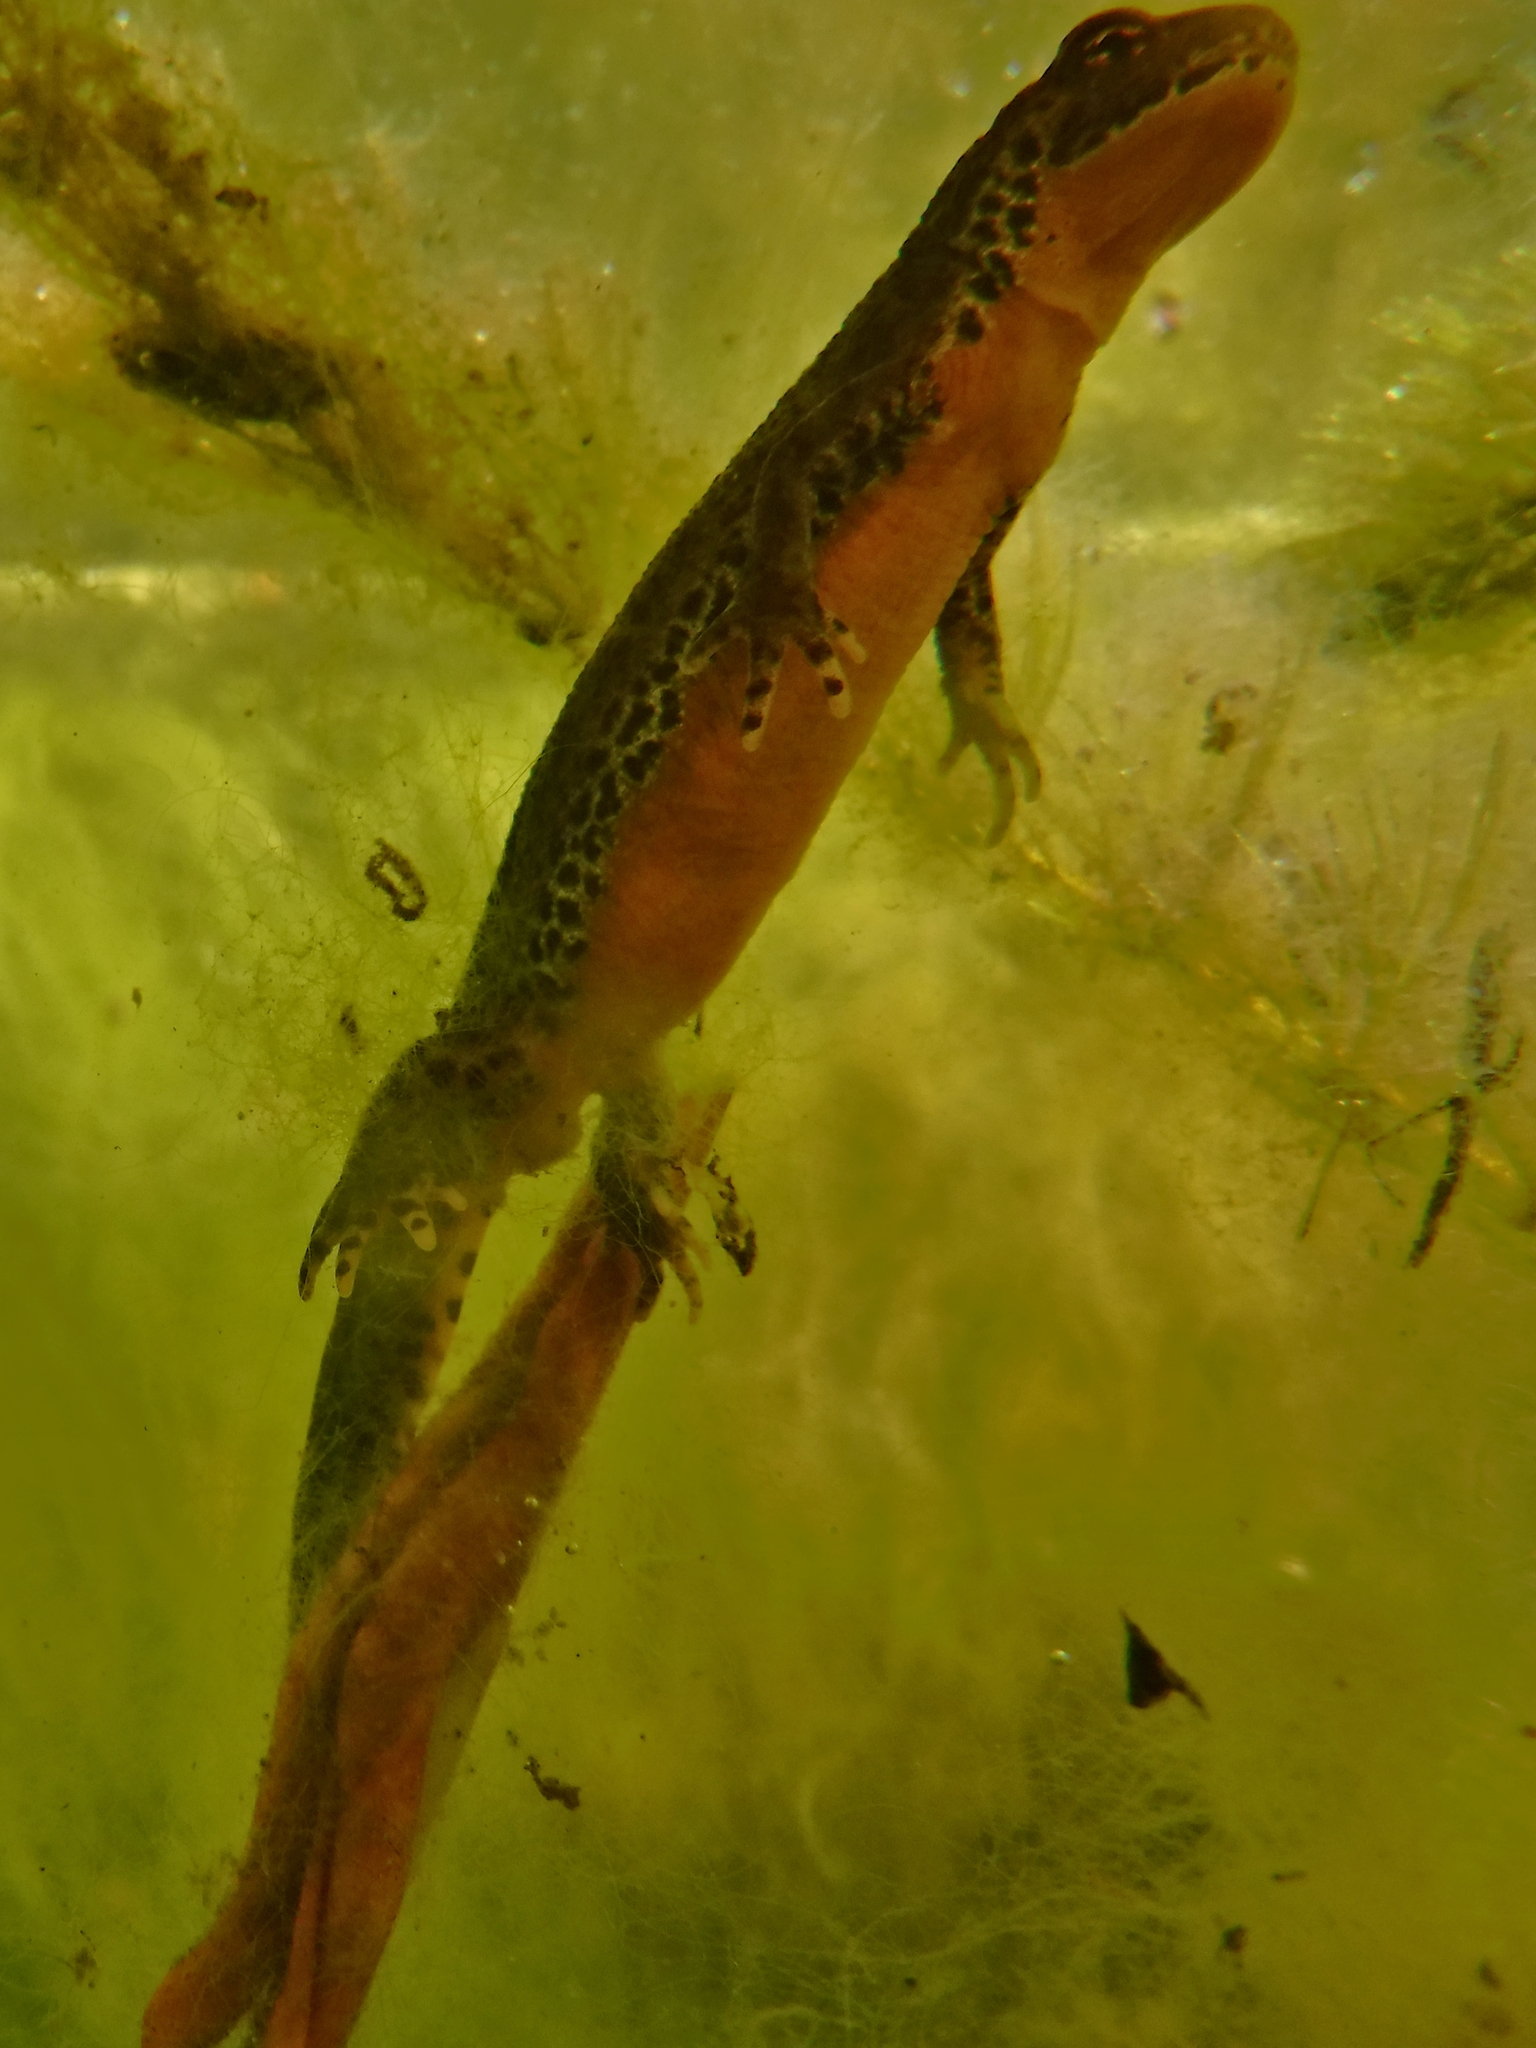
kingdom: Animalia
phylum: Chordata
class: Amphibia
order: Caudata
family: Salamandridae
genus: Ichthyosaura
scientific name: Ichthyosaura alpestris
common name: Alpine newt
